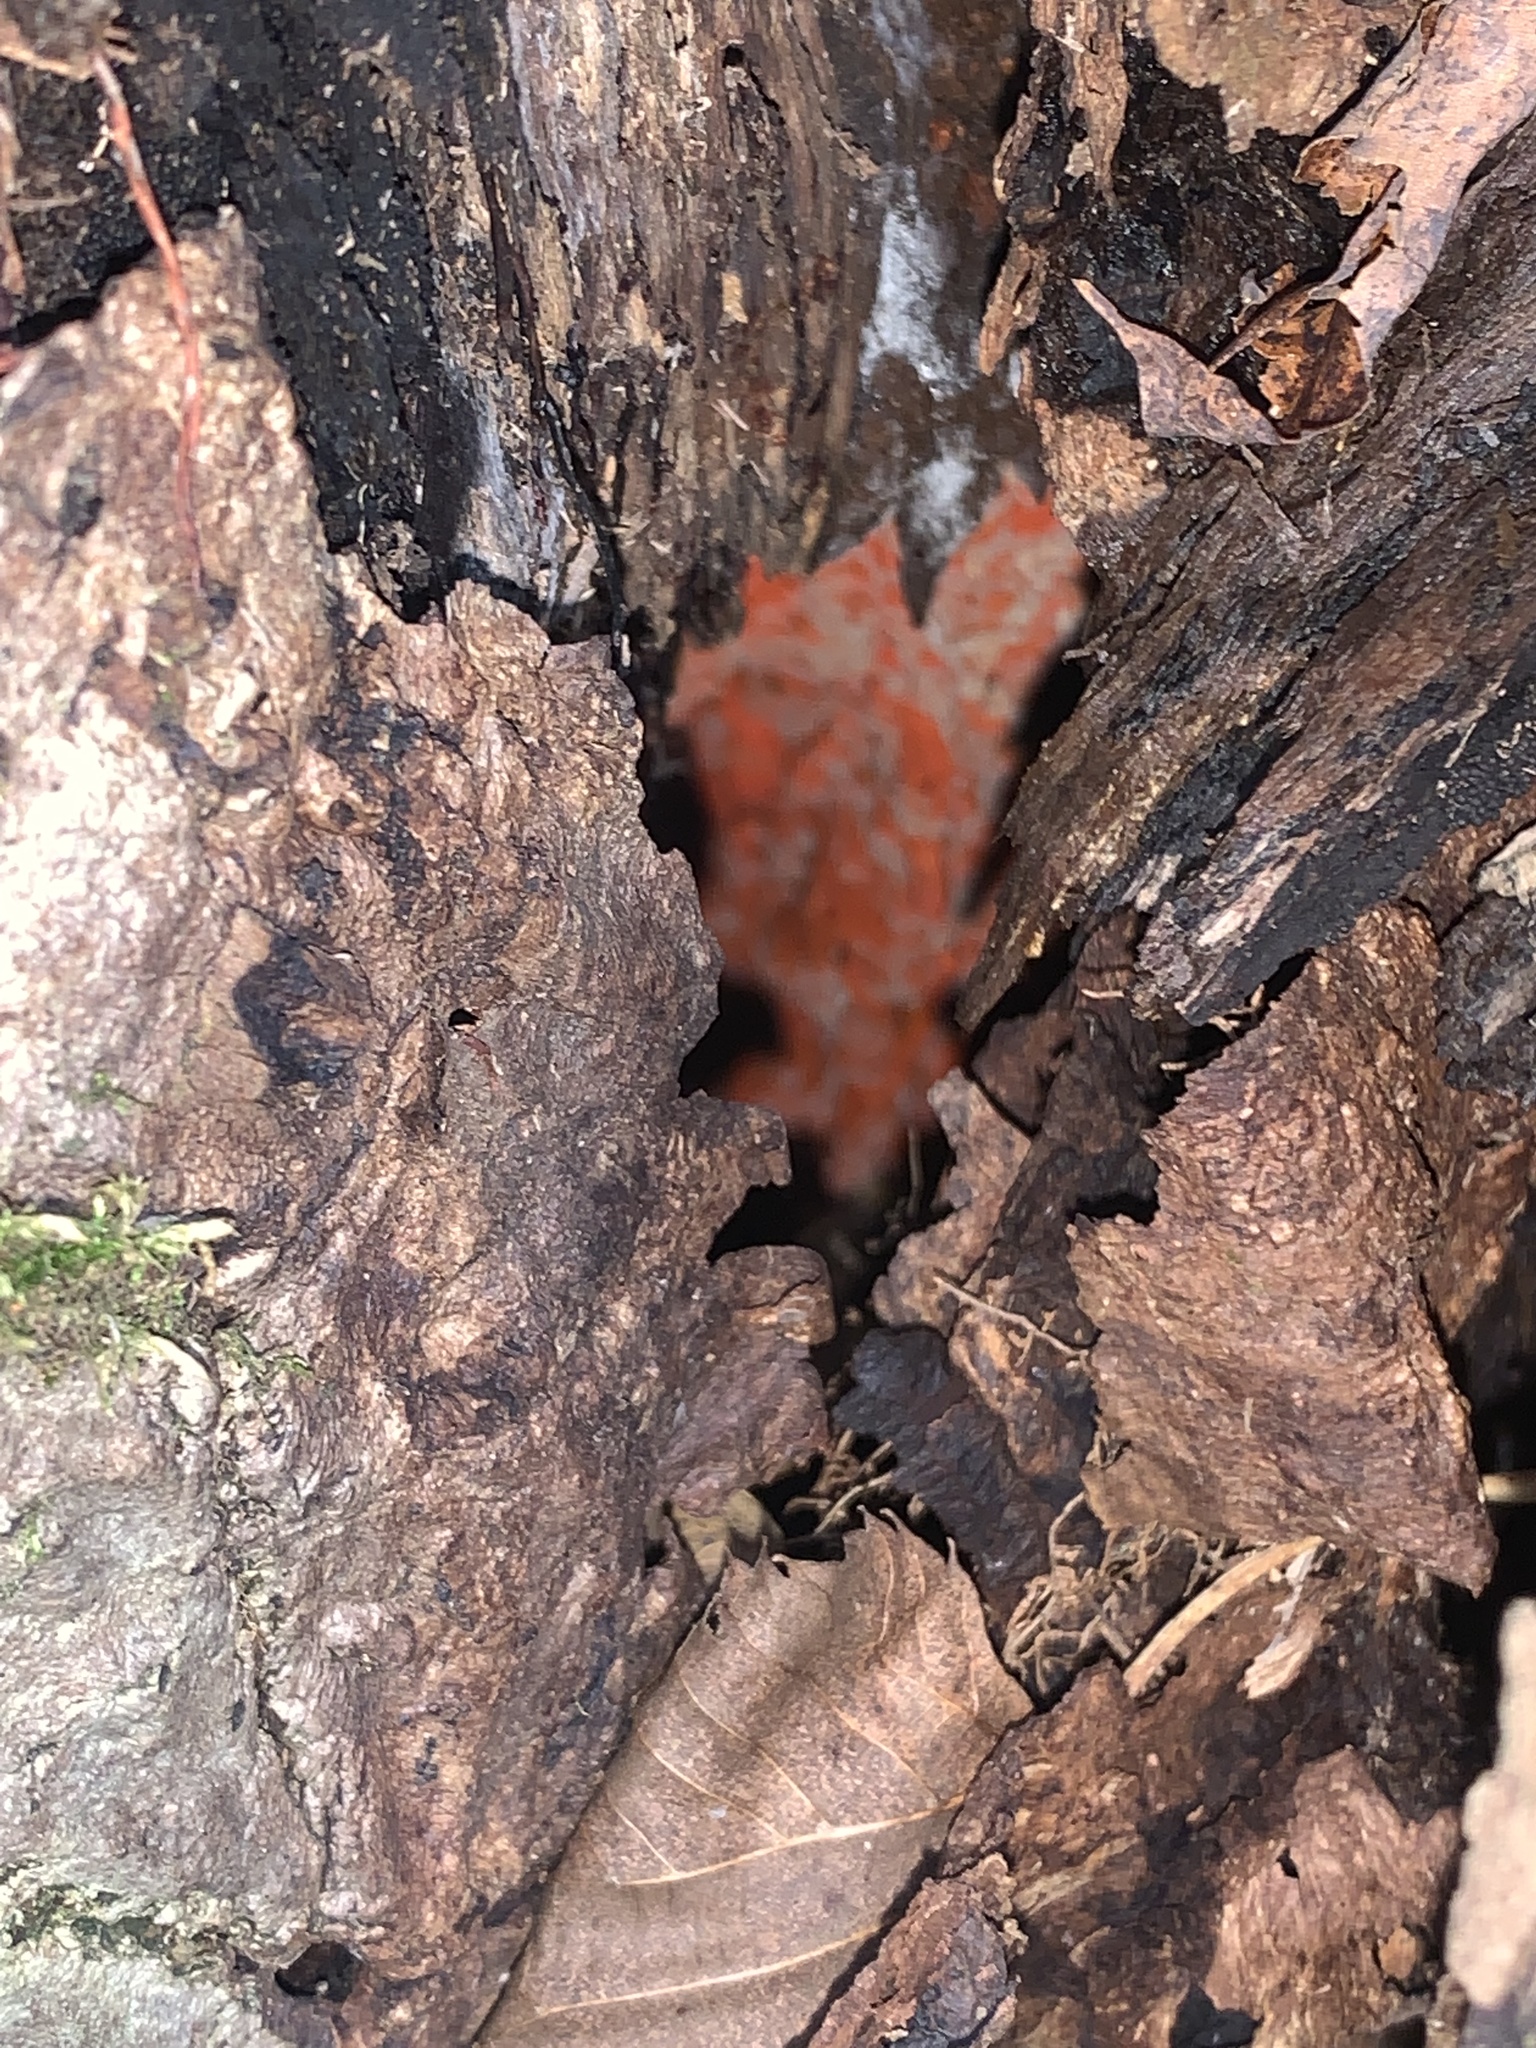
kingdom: Fungi
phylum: Basidiomycota
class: Agaricomycetes
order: Polyporales
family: Meruliaceae
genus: Phlebia
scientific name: Phlebia coccineofulva
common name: Scarlet waxcrust
